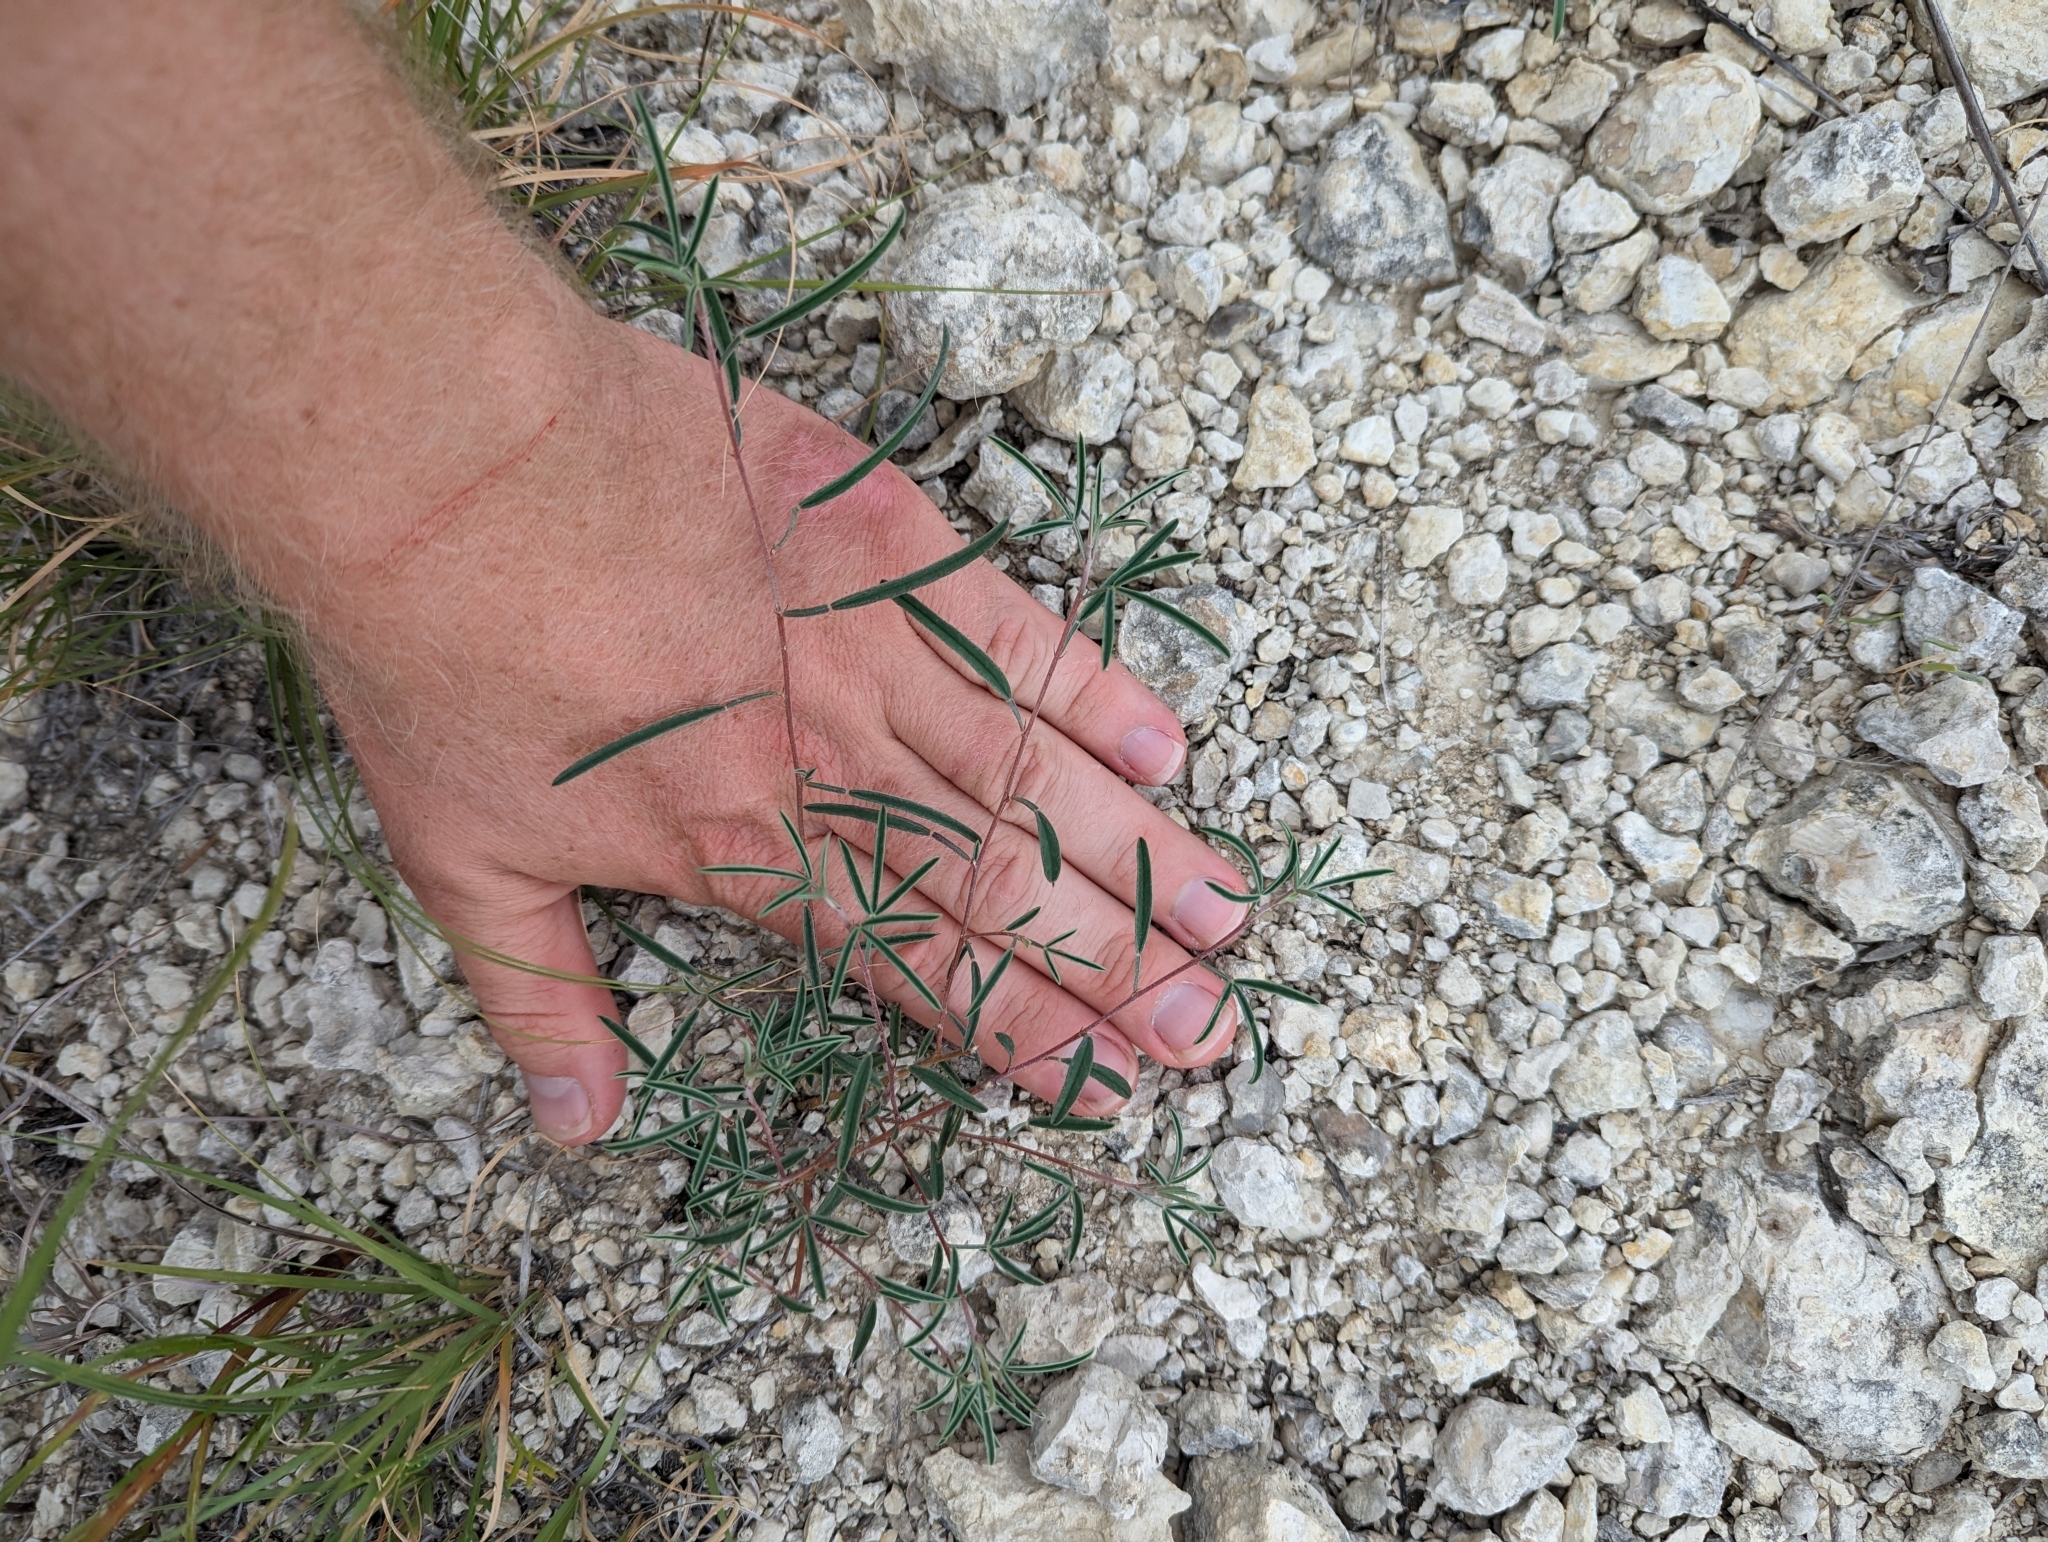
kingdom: Plantae
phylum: Tracheophyta
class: Magnoliopsida
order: Fabales
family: Fabaceae
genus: Dalea
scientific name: Dalea hallii
